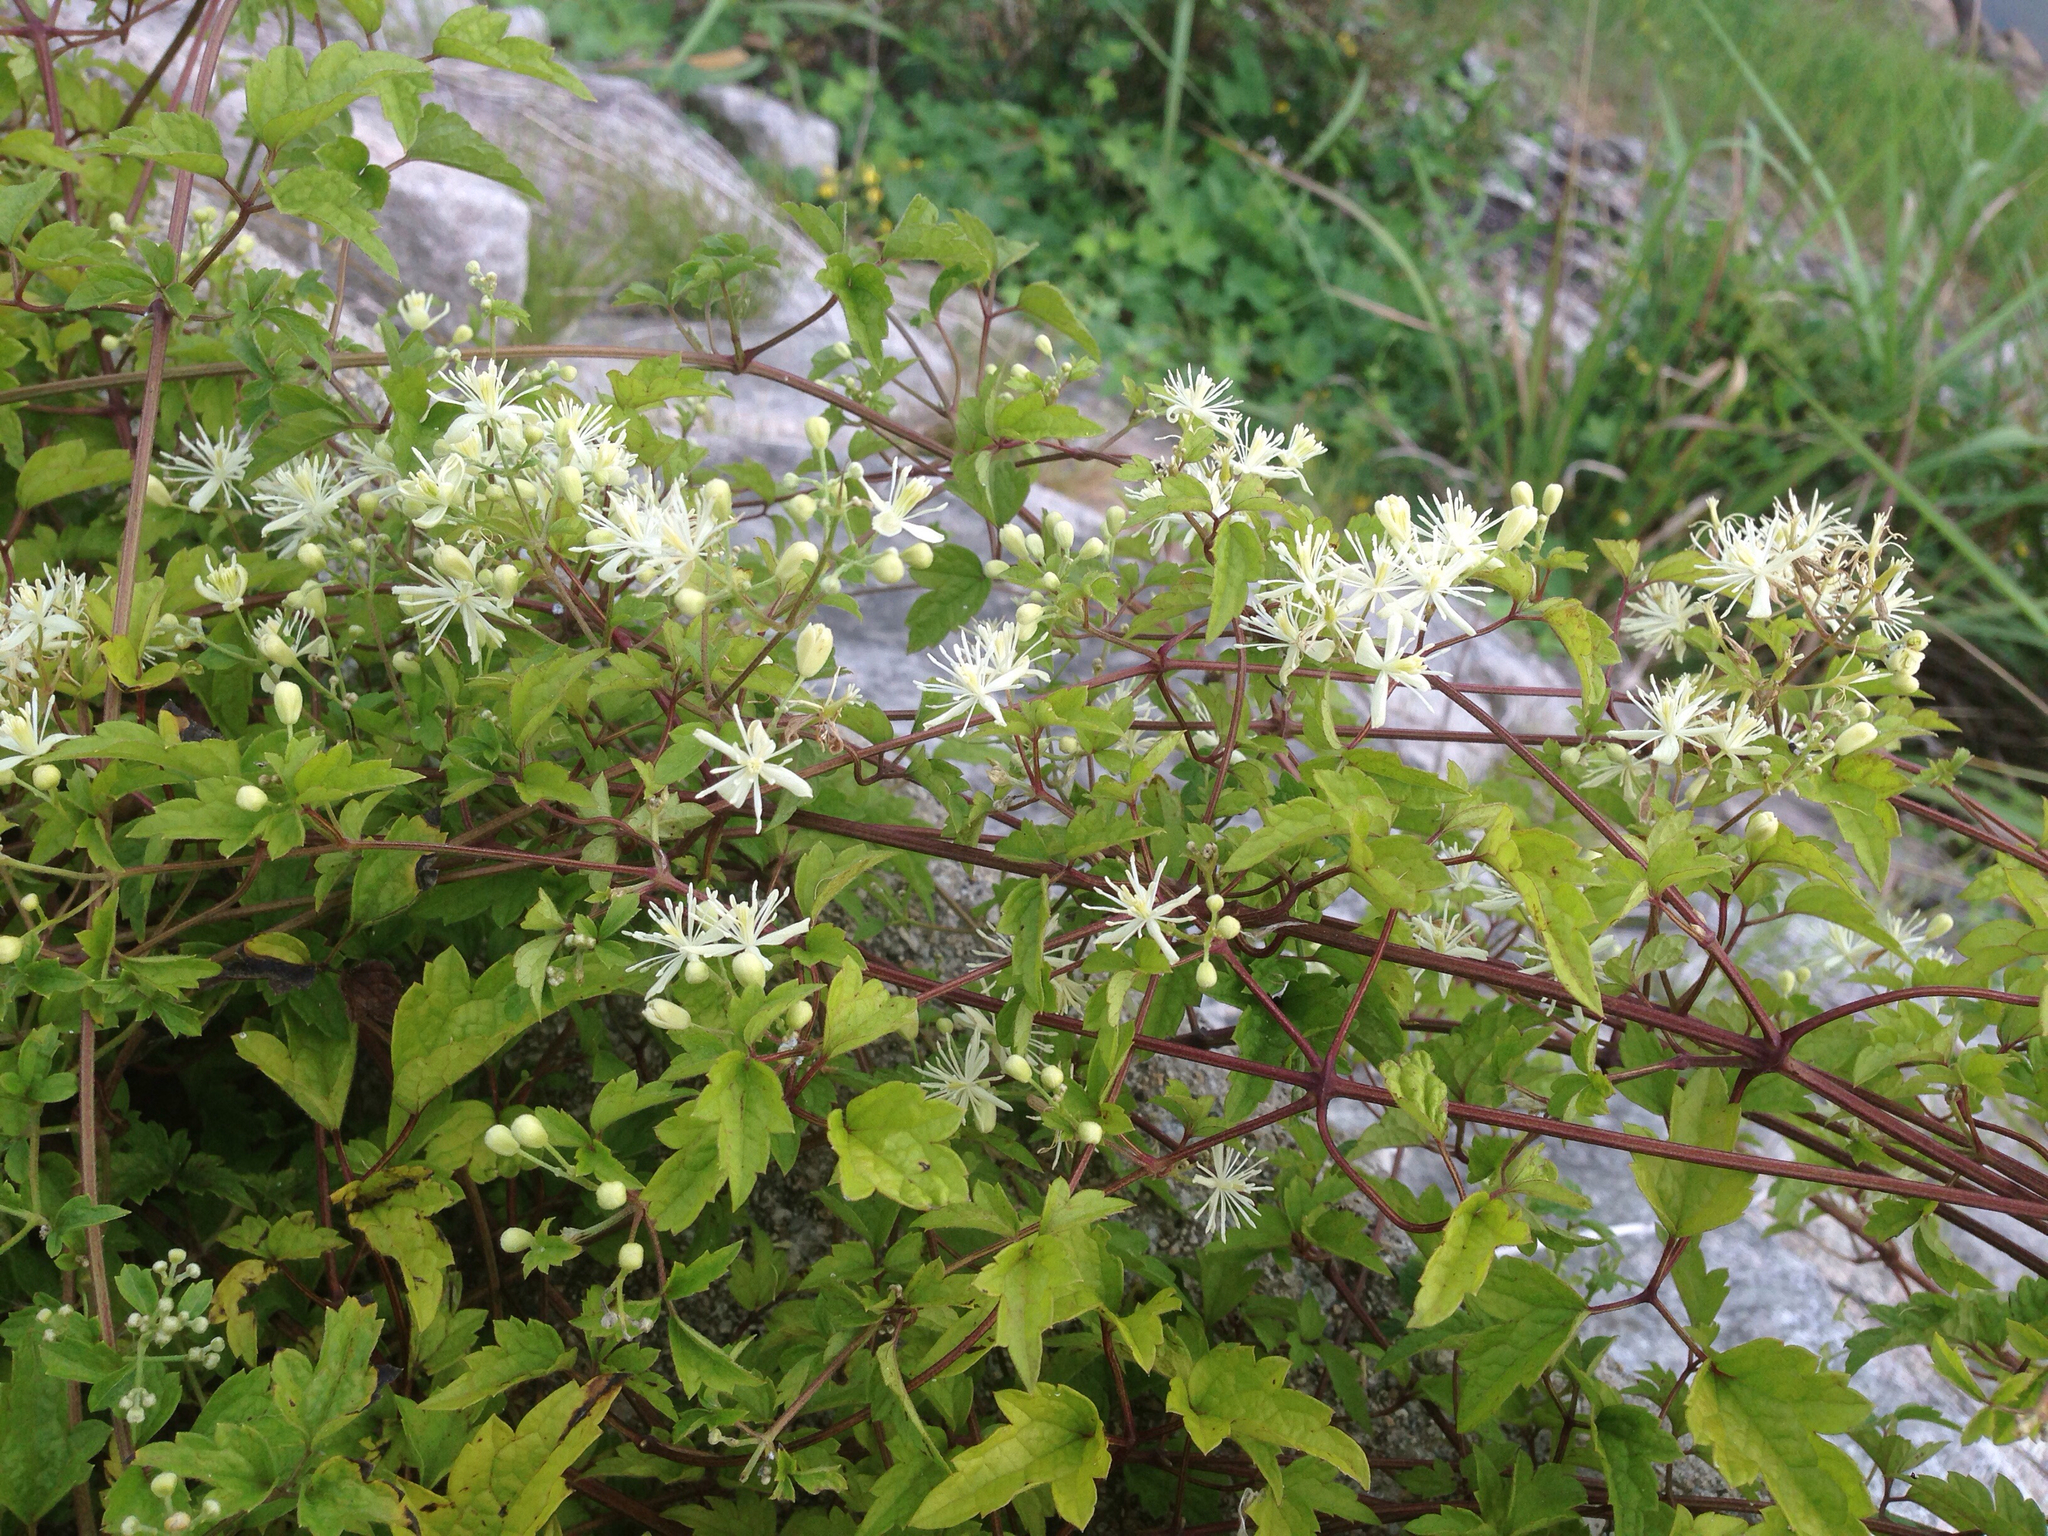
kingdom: Plantae
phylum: Tracheophyta
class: Magnoliopsida
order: Ranunculales
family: Ranunculaceae
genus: Clematis
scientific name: Clematis trichotoma
